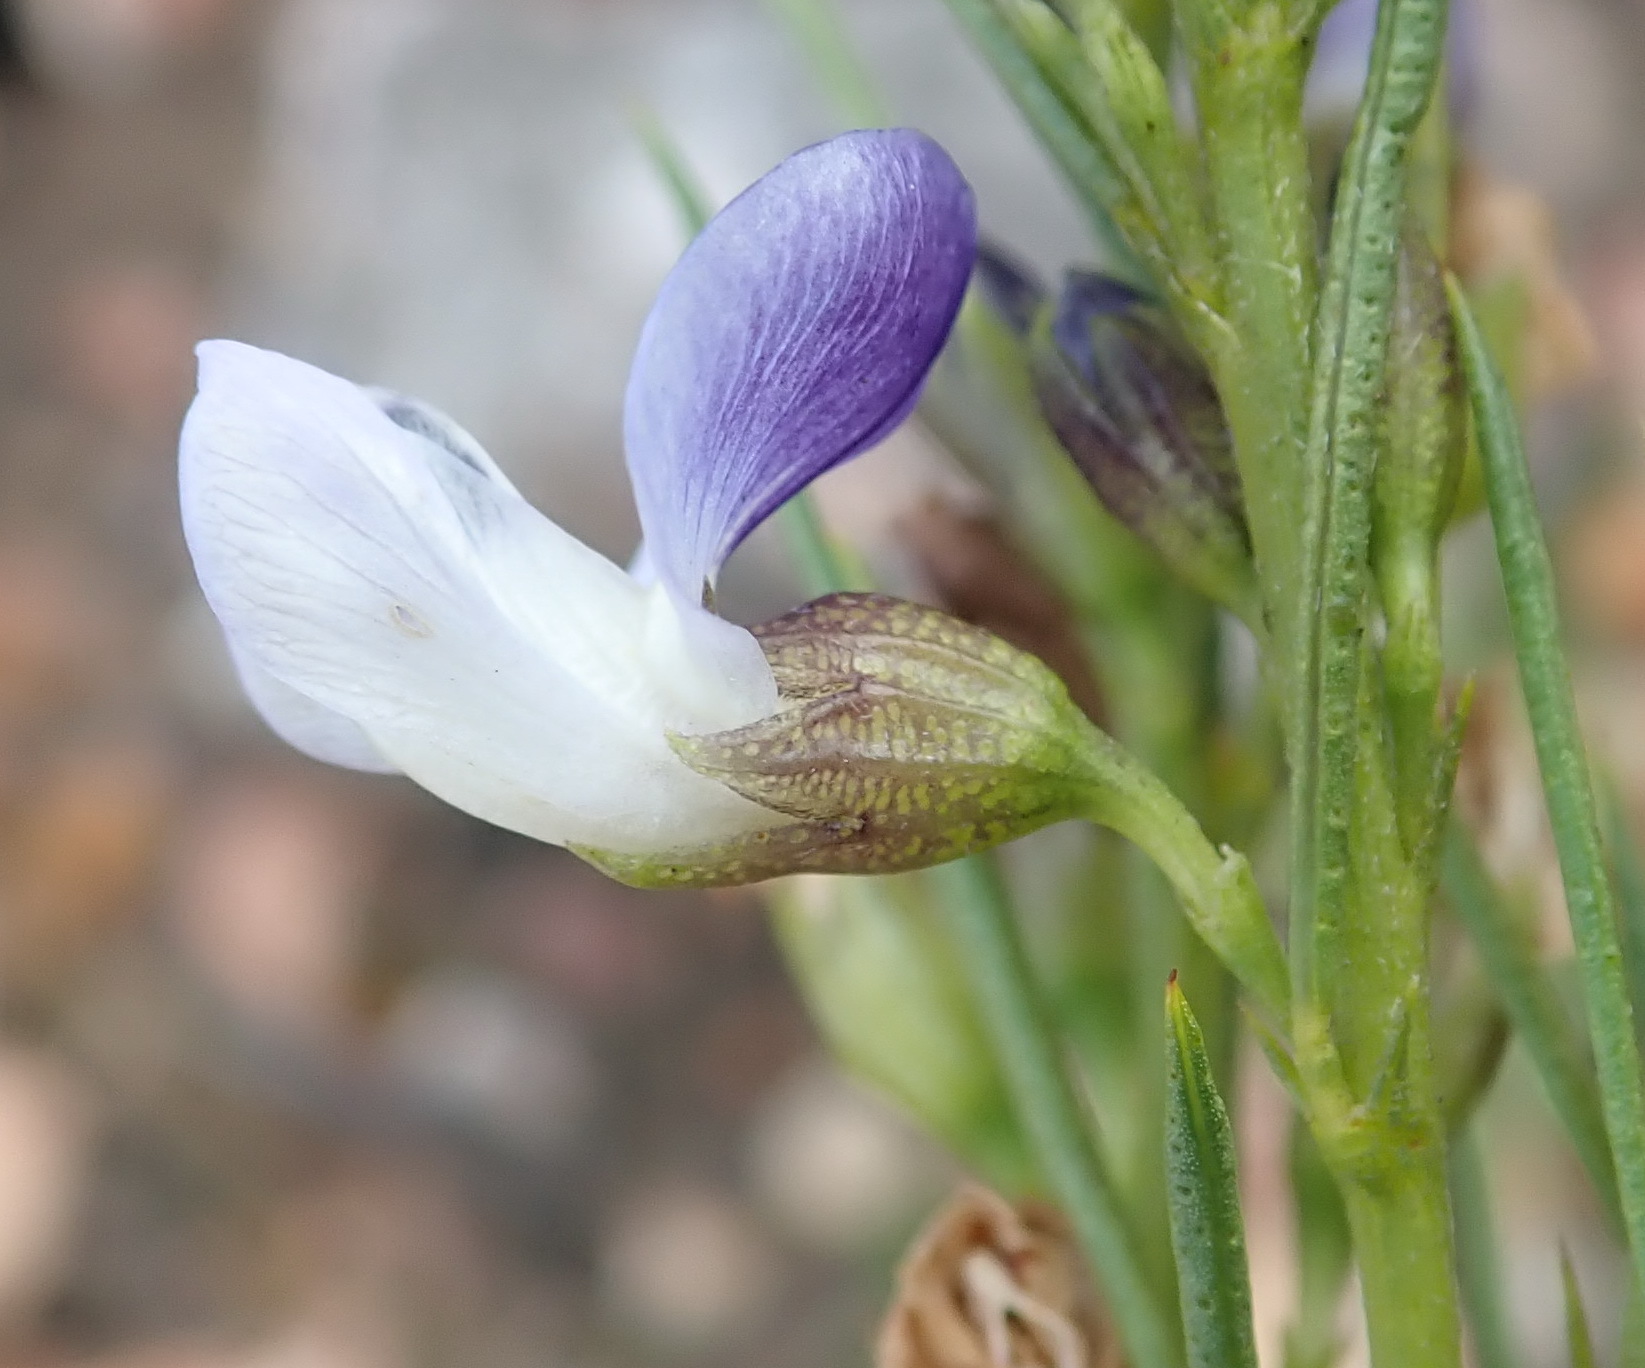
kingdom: Plantae
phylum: Tracheophyta
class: Magnoliopsida
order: Fabales
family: Fabaceae
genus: Psoralea
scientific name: Psoralea diturnerae
